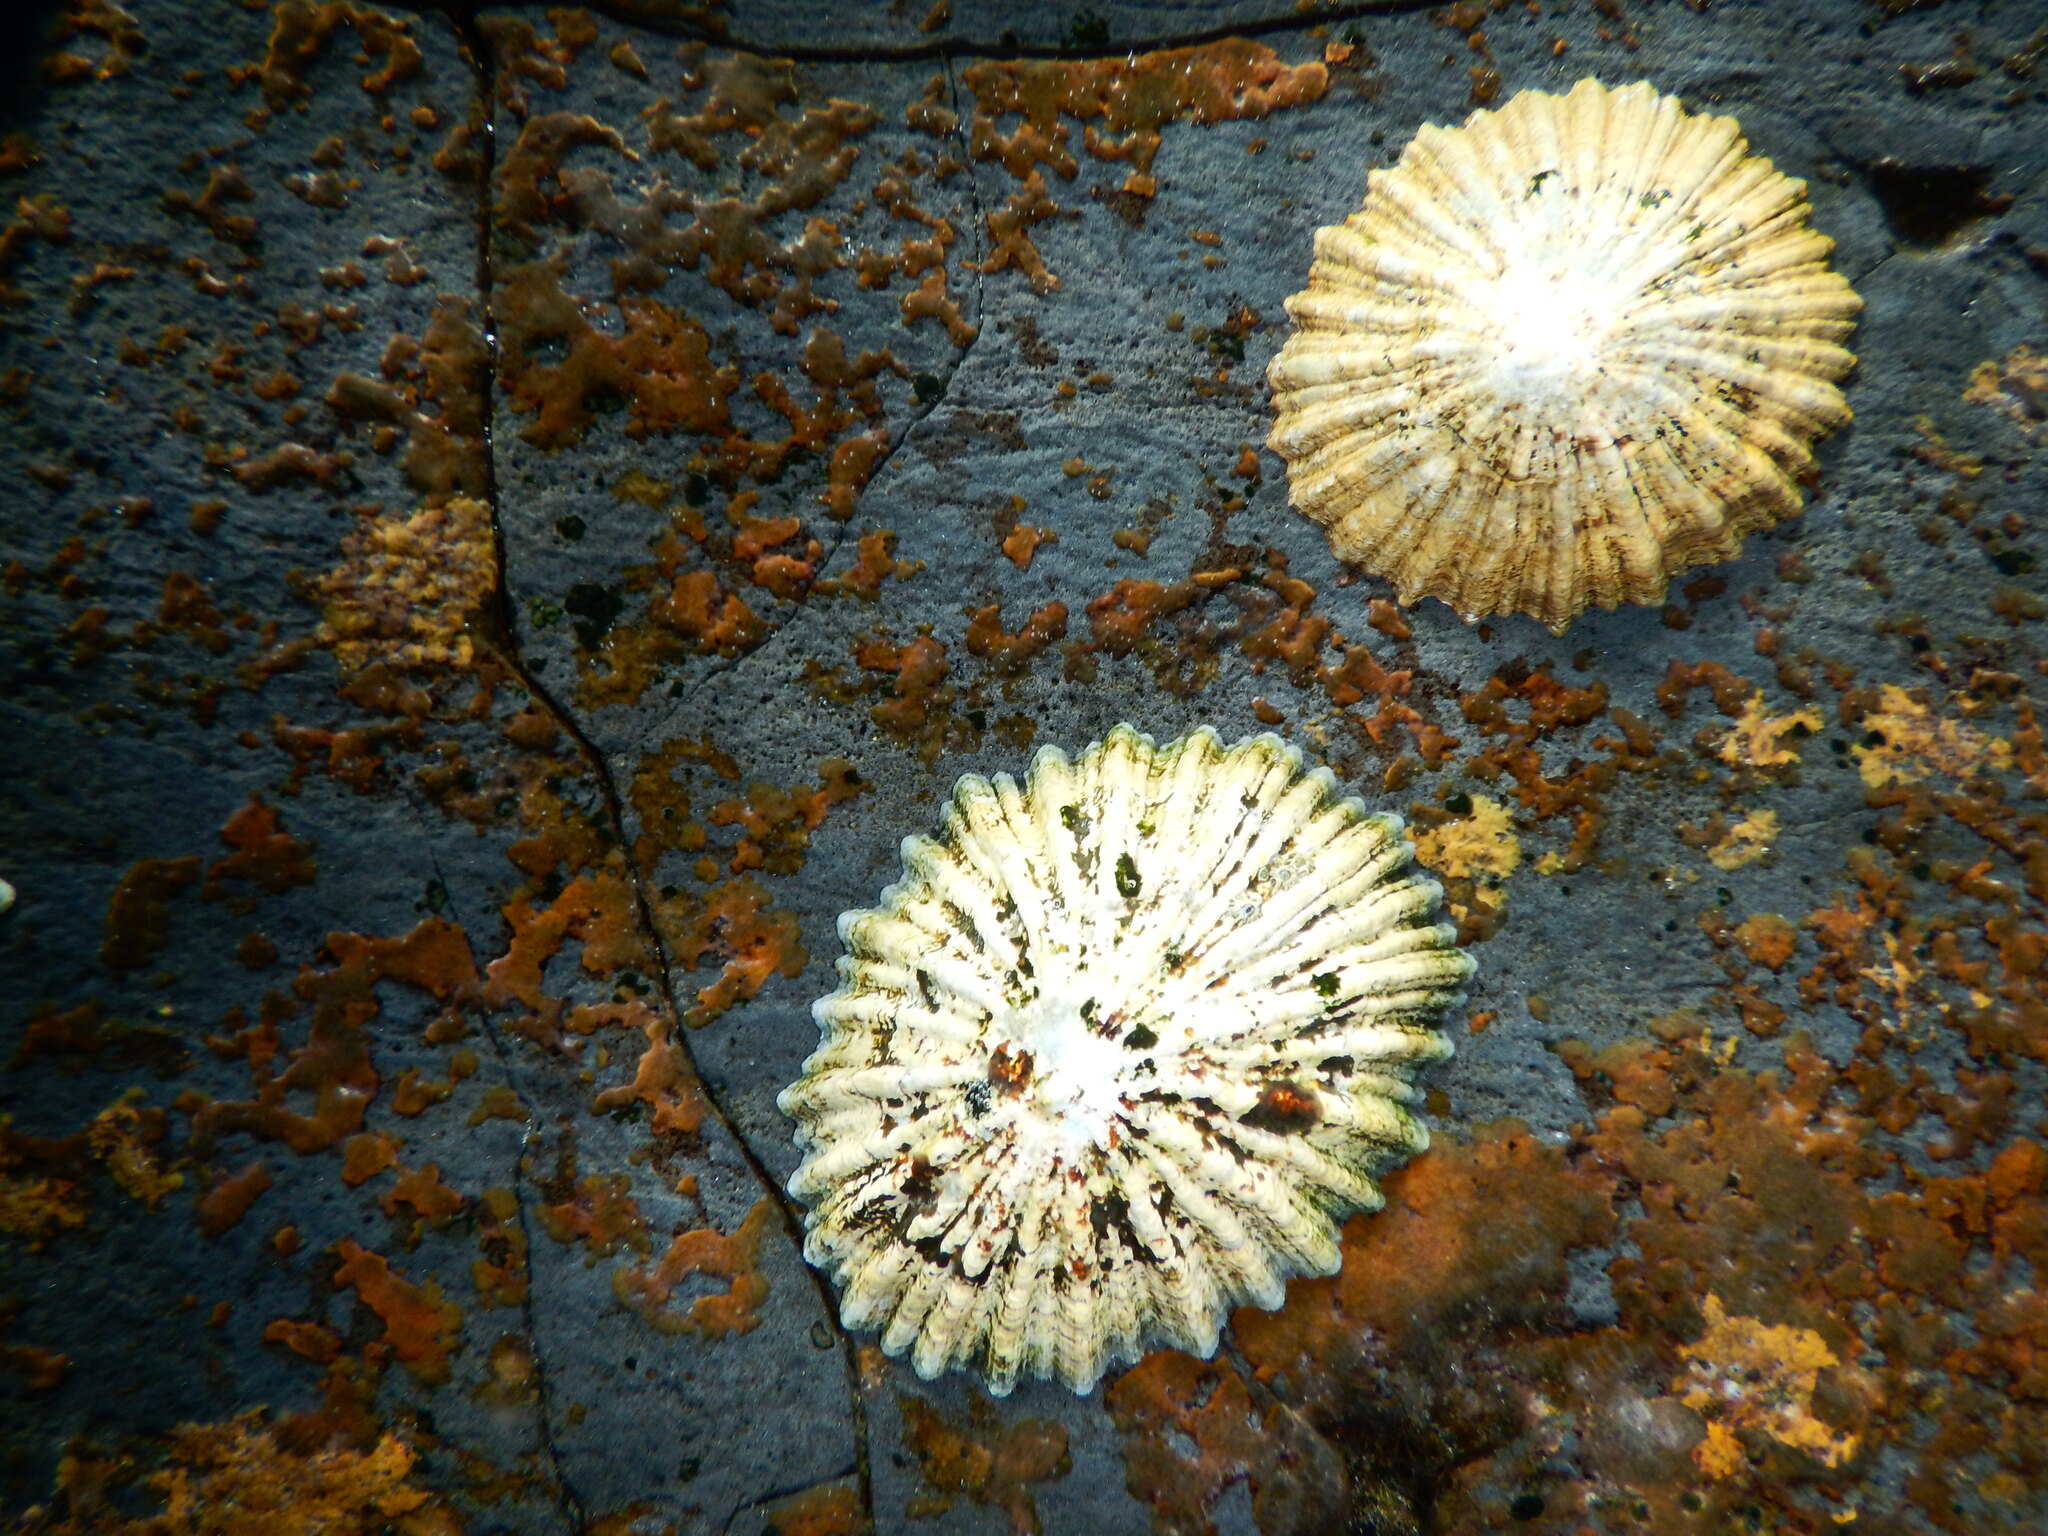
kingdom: Animalia
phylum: Mollusca
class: Gastropoda
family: Patellidae
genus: Patella
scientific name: Patella aspera
